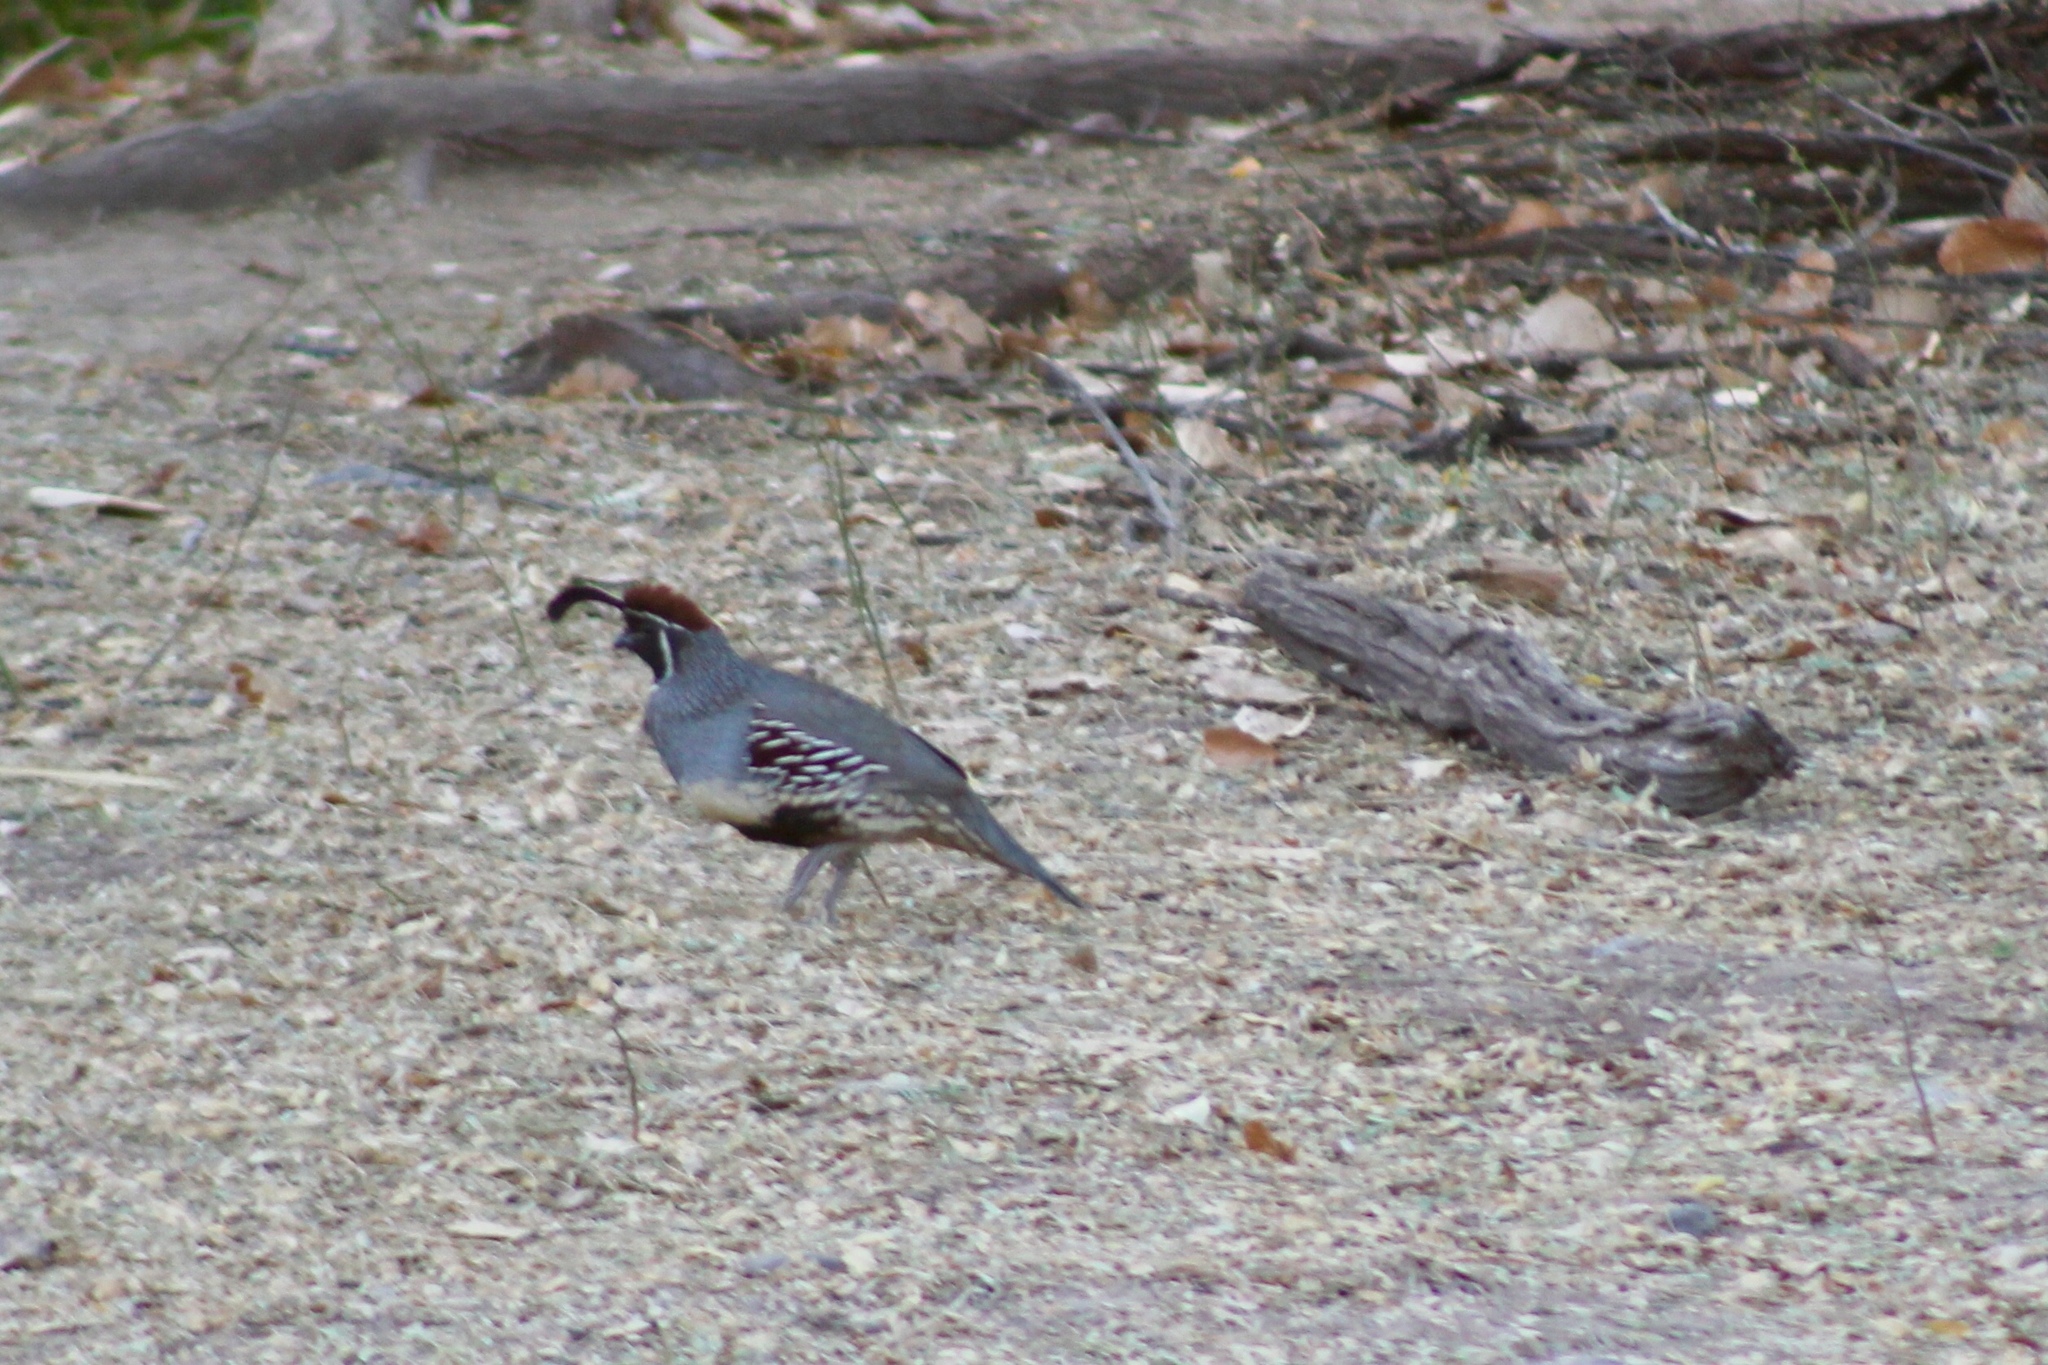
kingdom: Animalia
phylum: Chordata
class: Aves
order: Galliformes
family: Odontophoridae
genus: Callipepla
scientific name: Callipepla gambelii
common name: Gambel's quail
